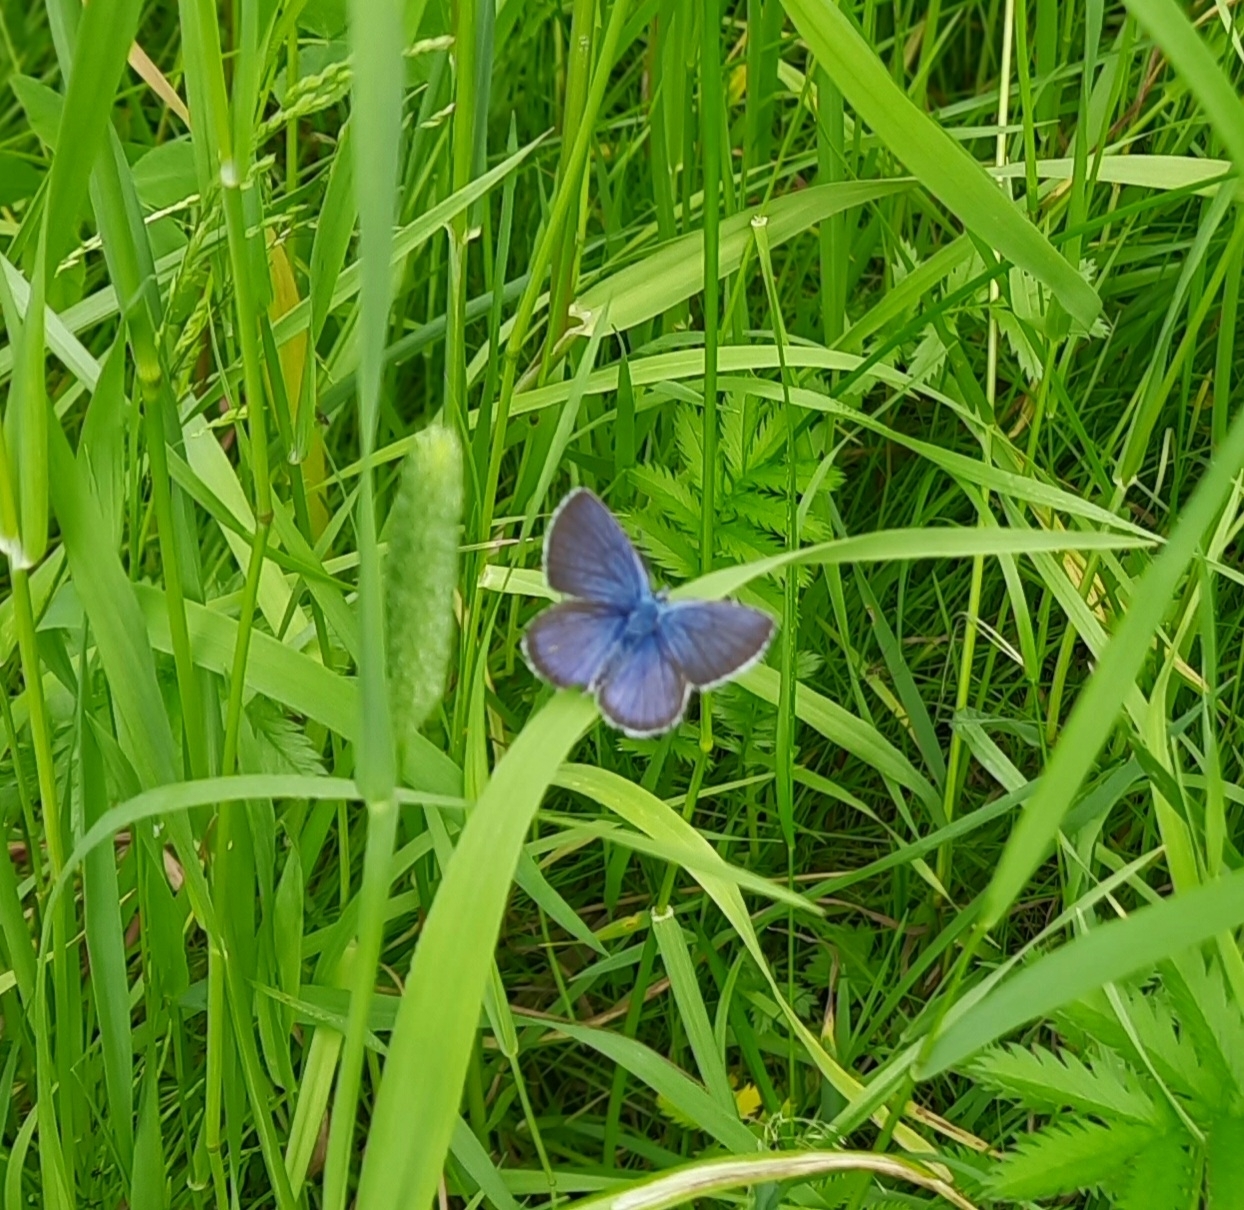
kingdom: Animalia
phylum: Arthropoda
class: Insecta
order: Lepidoptera
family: Lycaenidae
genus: Cyaniris
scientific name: Cyaniris semiargus
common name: Mazarine blue
